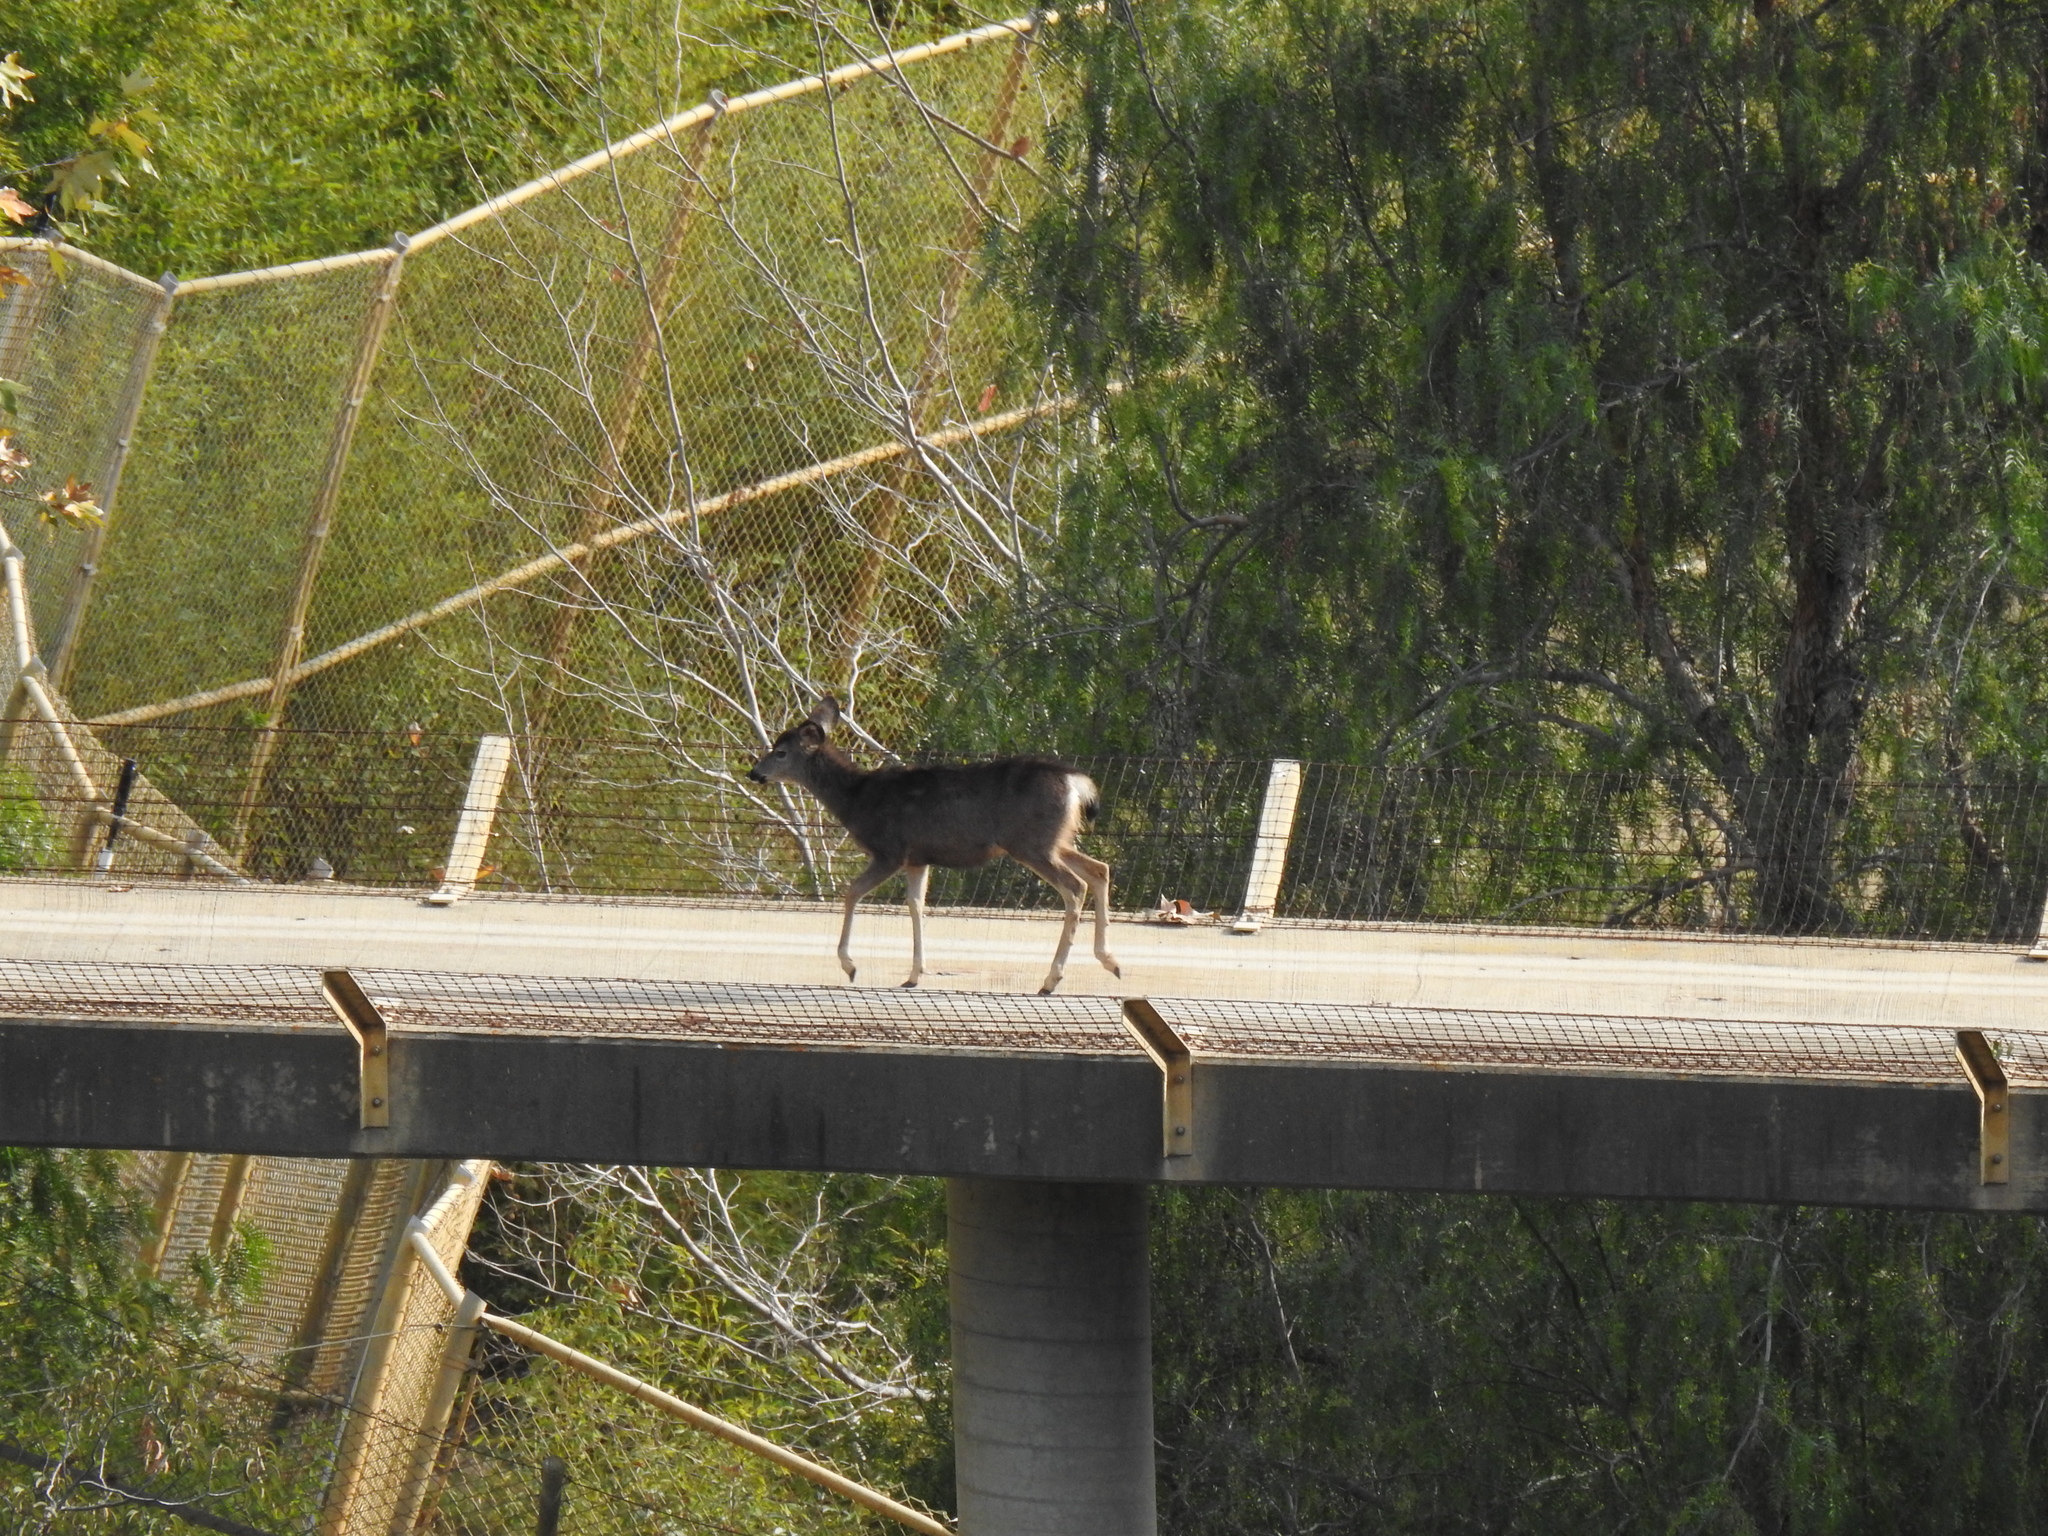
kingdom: Animalia
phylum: Chordata
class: Mammalia
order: Artiodactyla
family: Cervidae
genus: Odocoileus
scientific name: Odocoileus hemionus
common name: Mule deer
